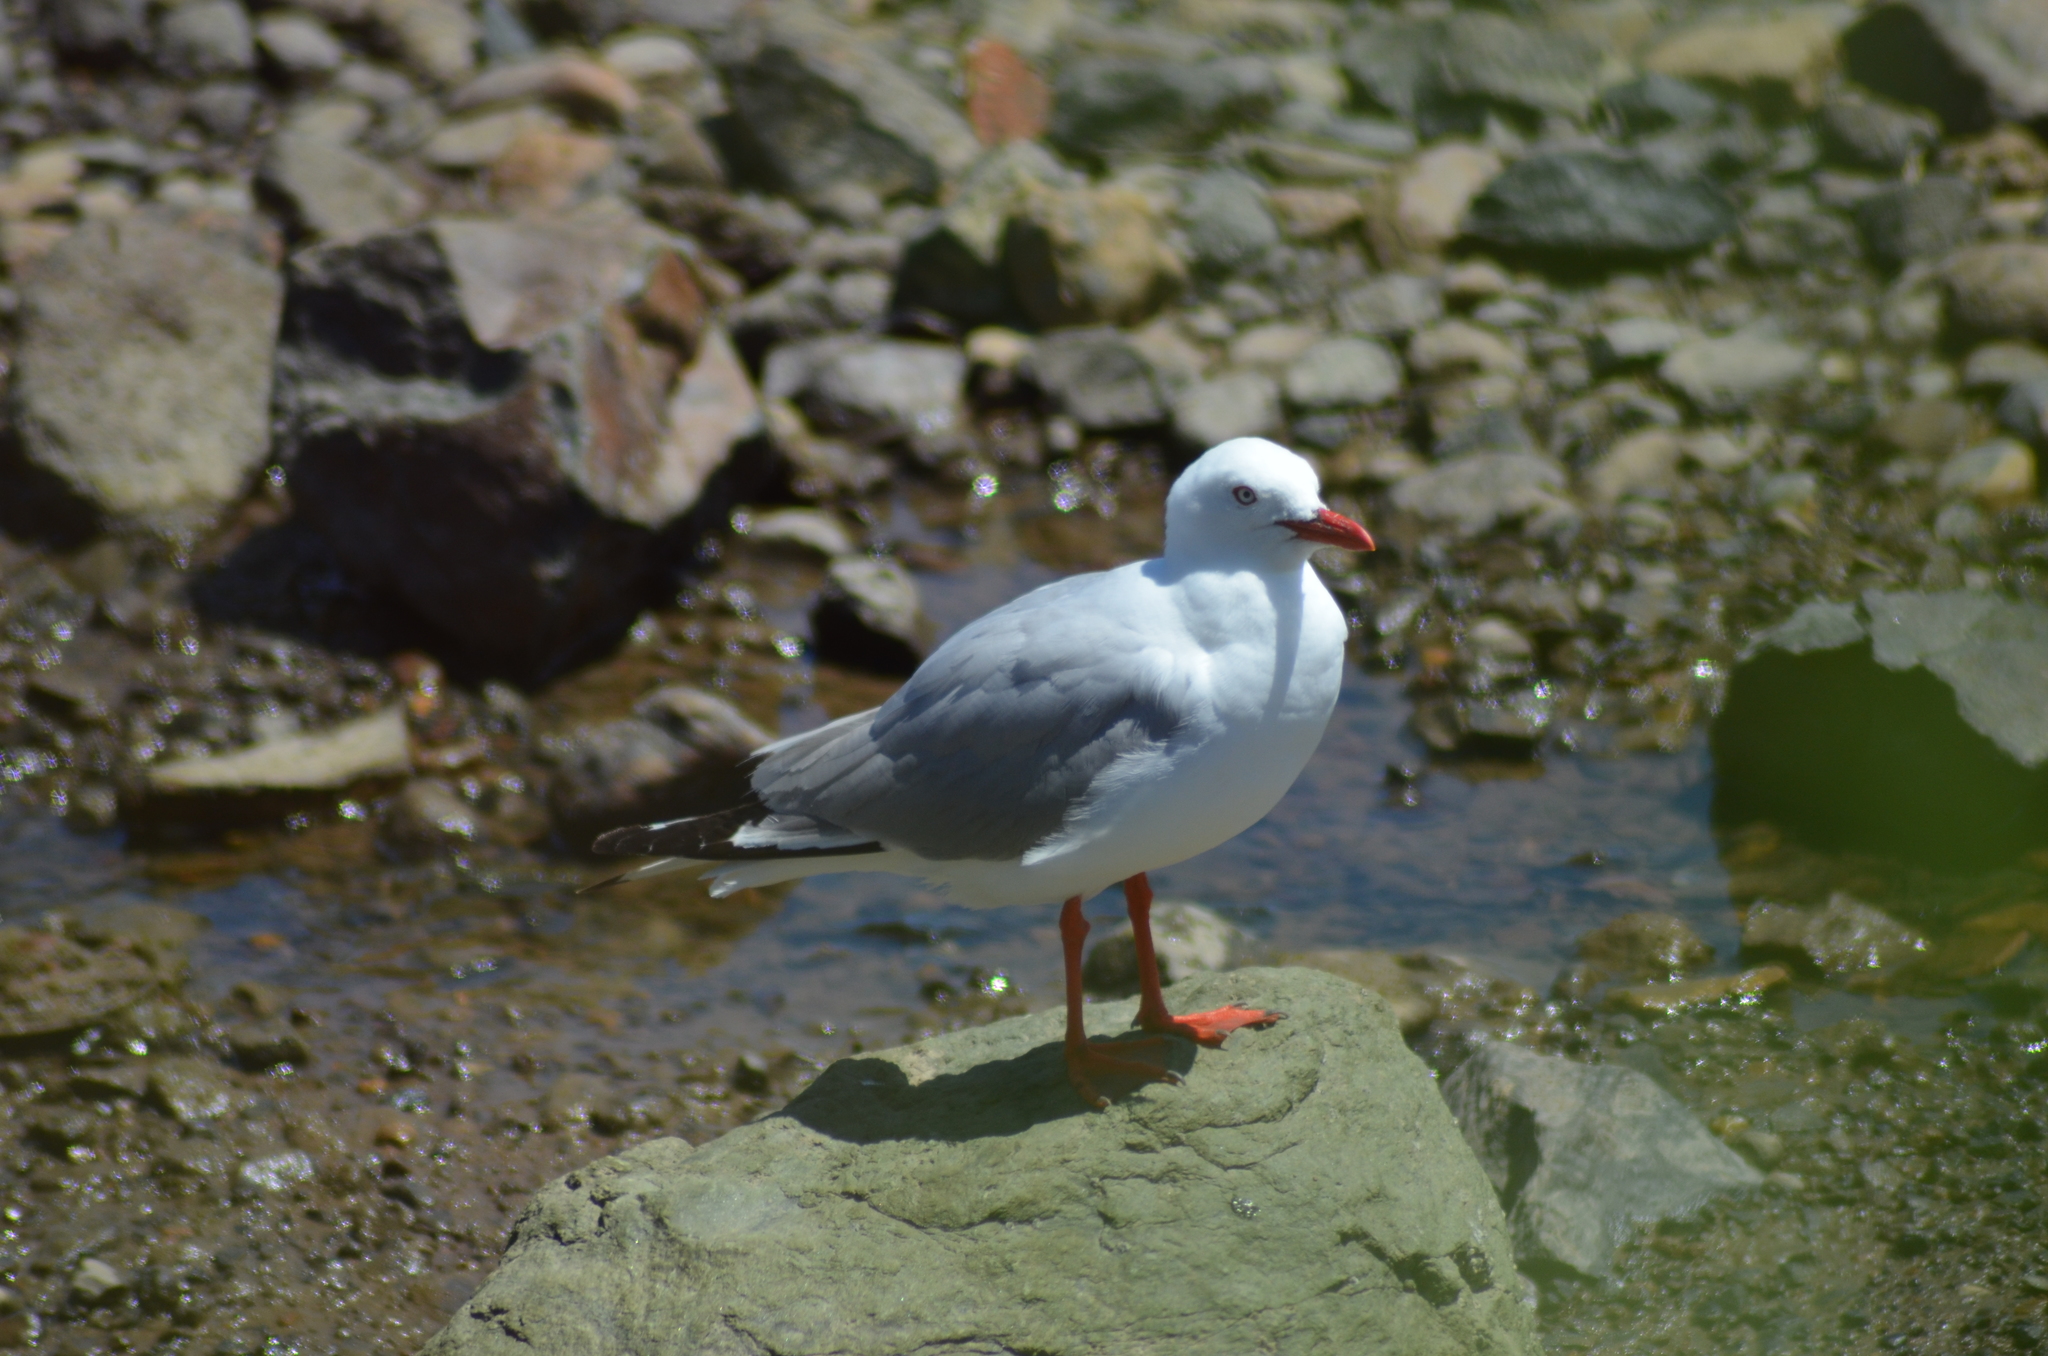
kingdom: Animalia
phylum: Chordata
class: Aves
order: Charadriiformes
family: Laridae
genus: Chroicocephalus
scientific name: Chroicocephalus novaehollandiae
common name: Silver gull
